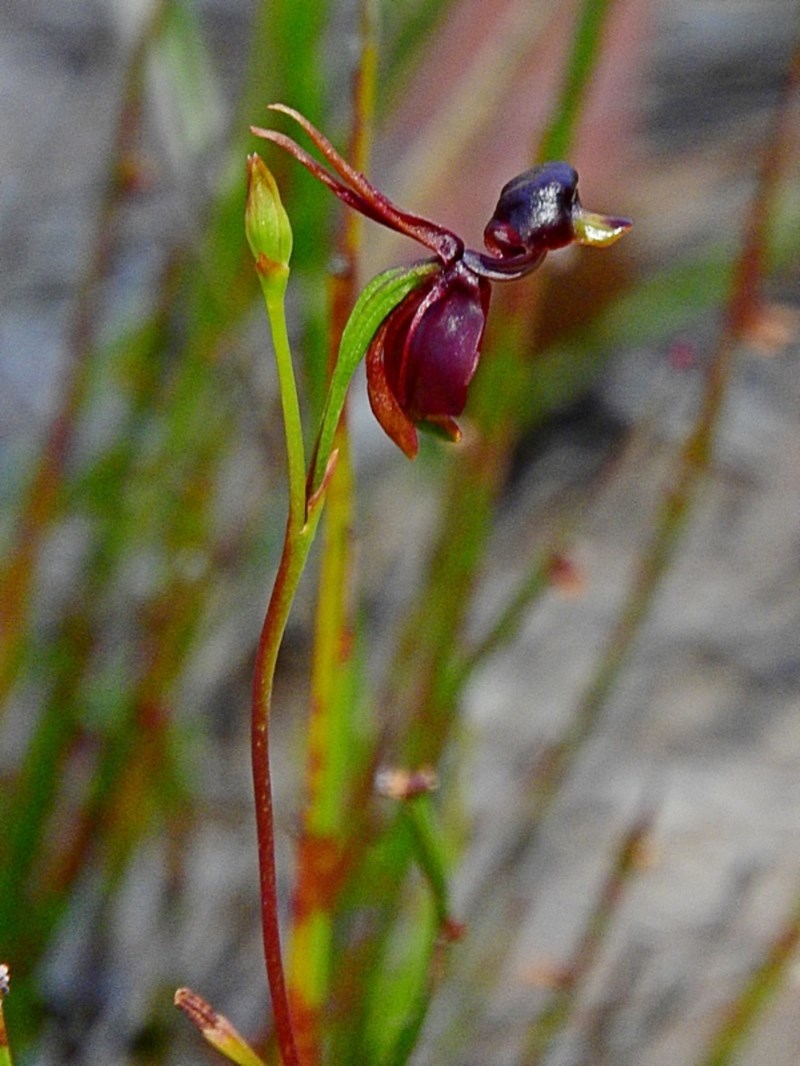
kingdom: Plantae
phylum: Tracheophyta
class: Liliopsida
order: Asparagales
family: Orchidaceae
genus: Caleana
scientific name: Caleana major
